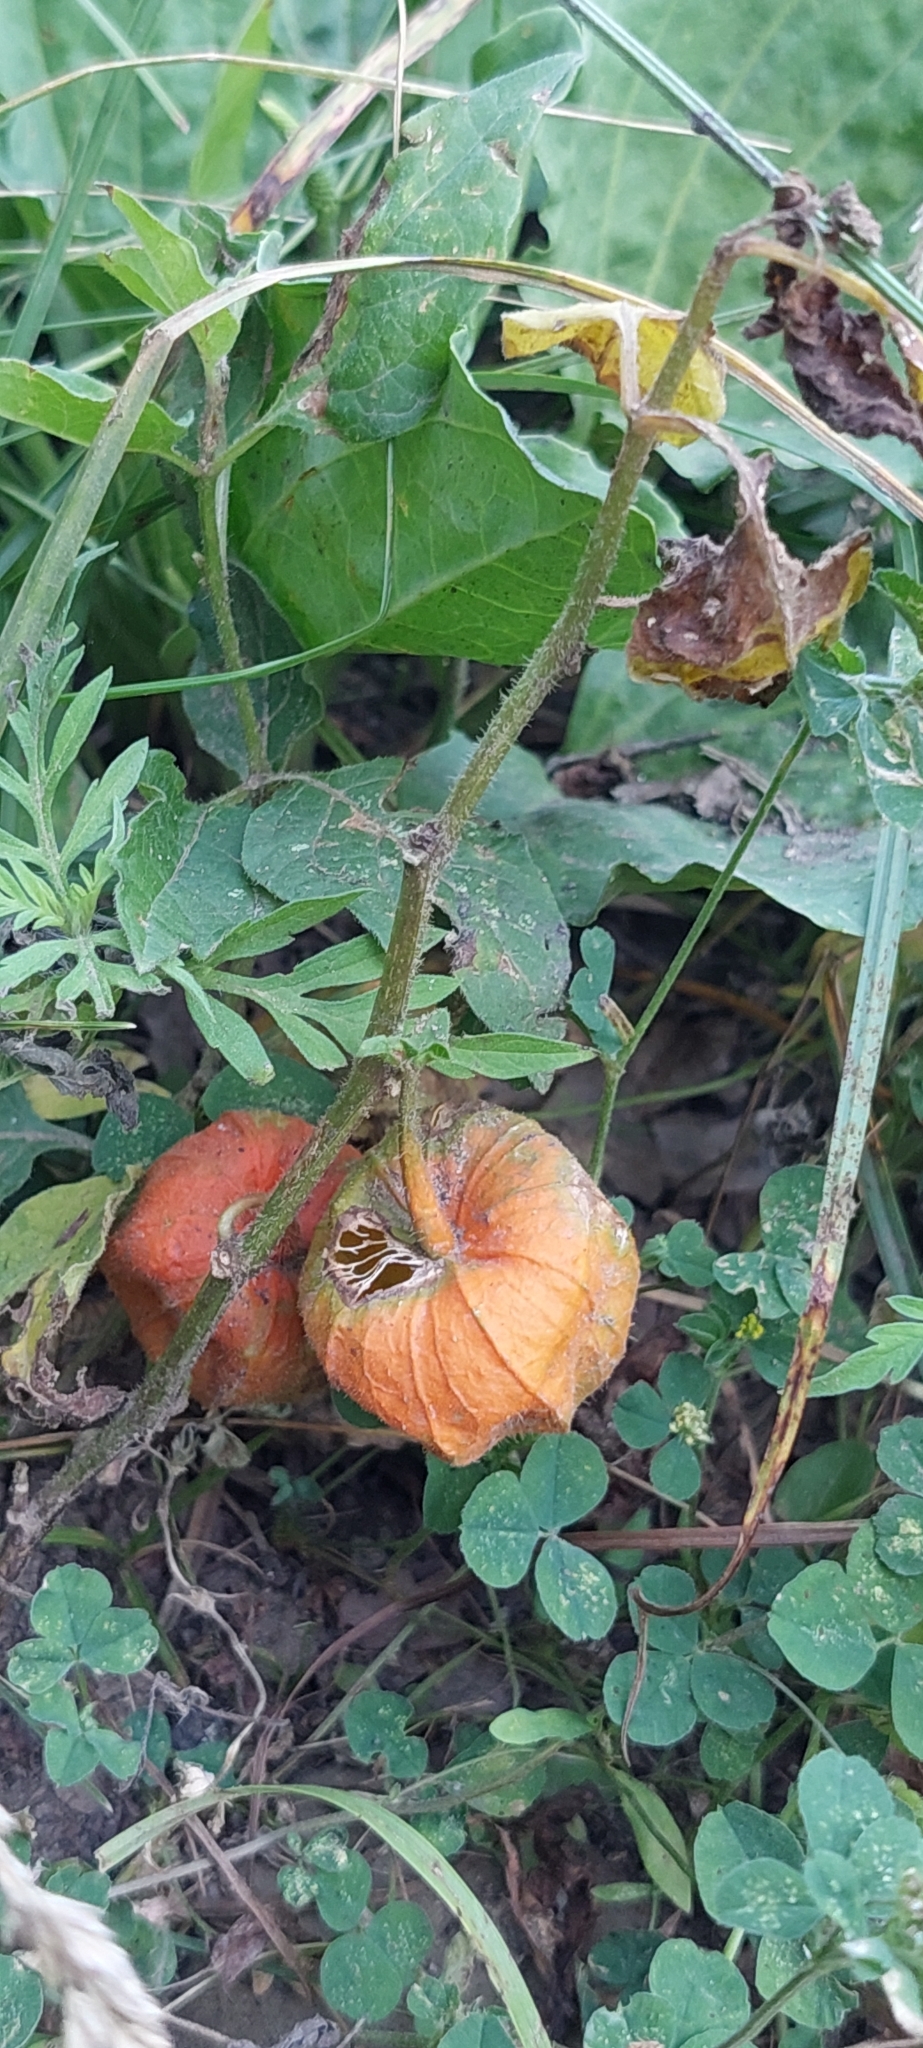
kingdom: Plantae
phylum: Tracheophyta
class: Magnoliopsida
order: Solanales
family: Solanaceae
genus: Alkekengi
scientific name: Alkekengi officinarum
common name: Japanese-lantern
